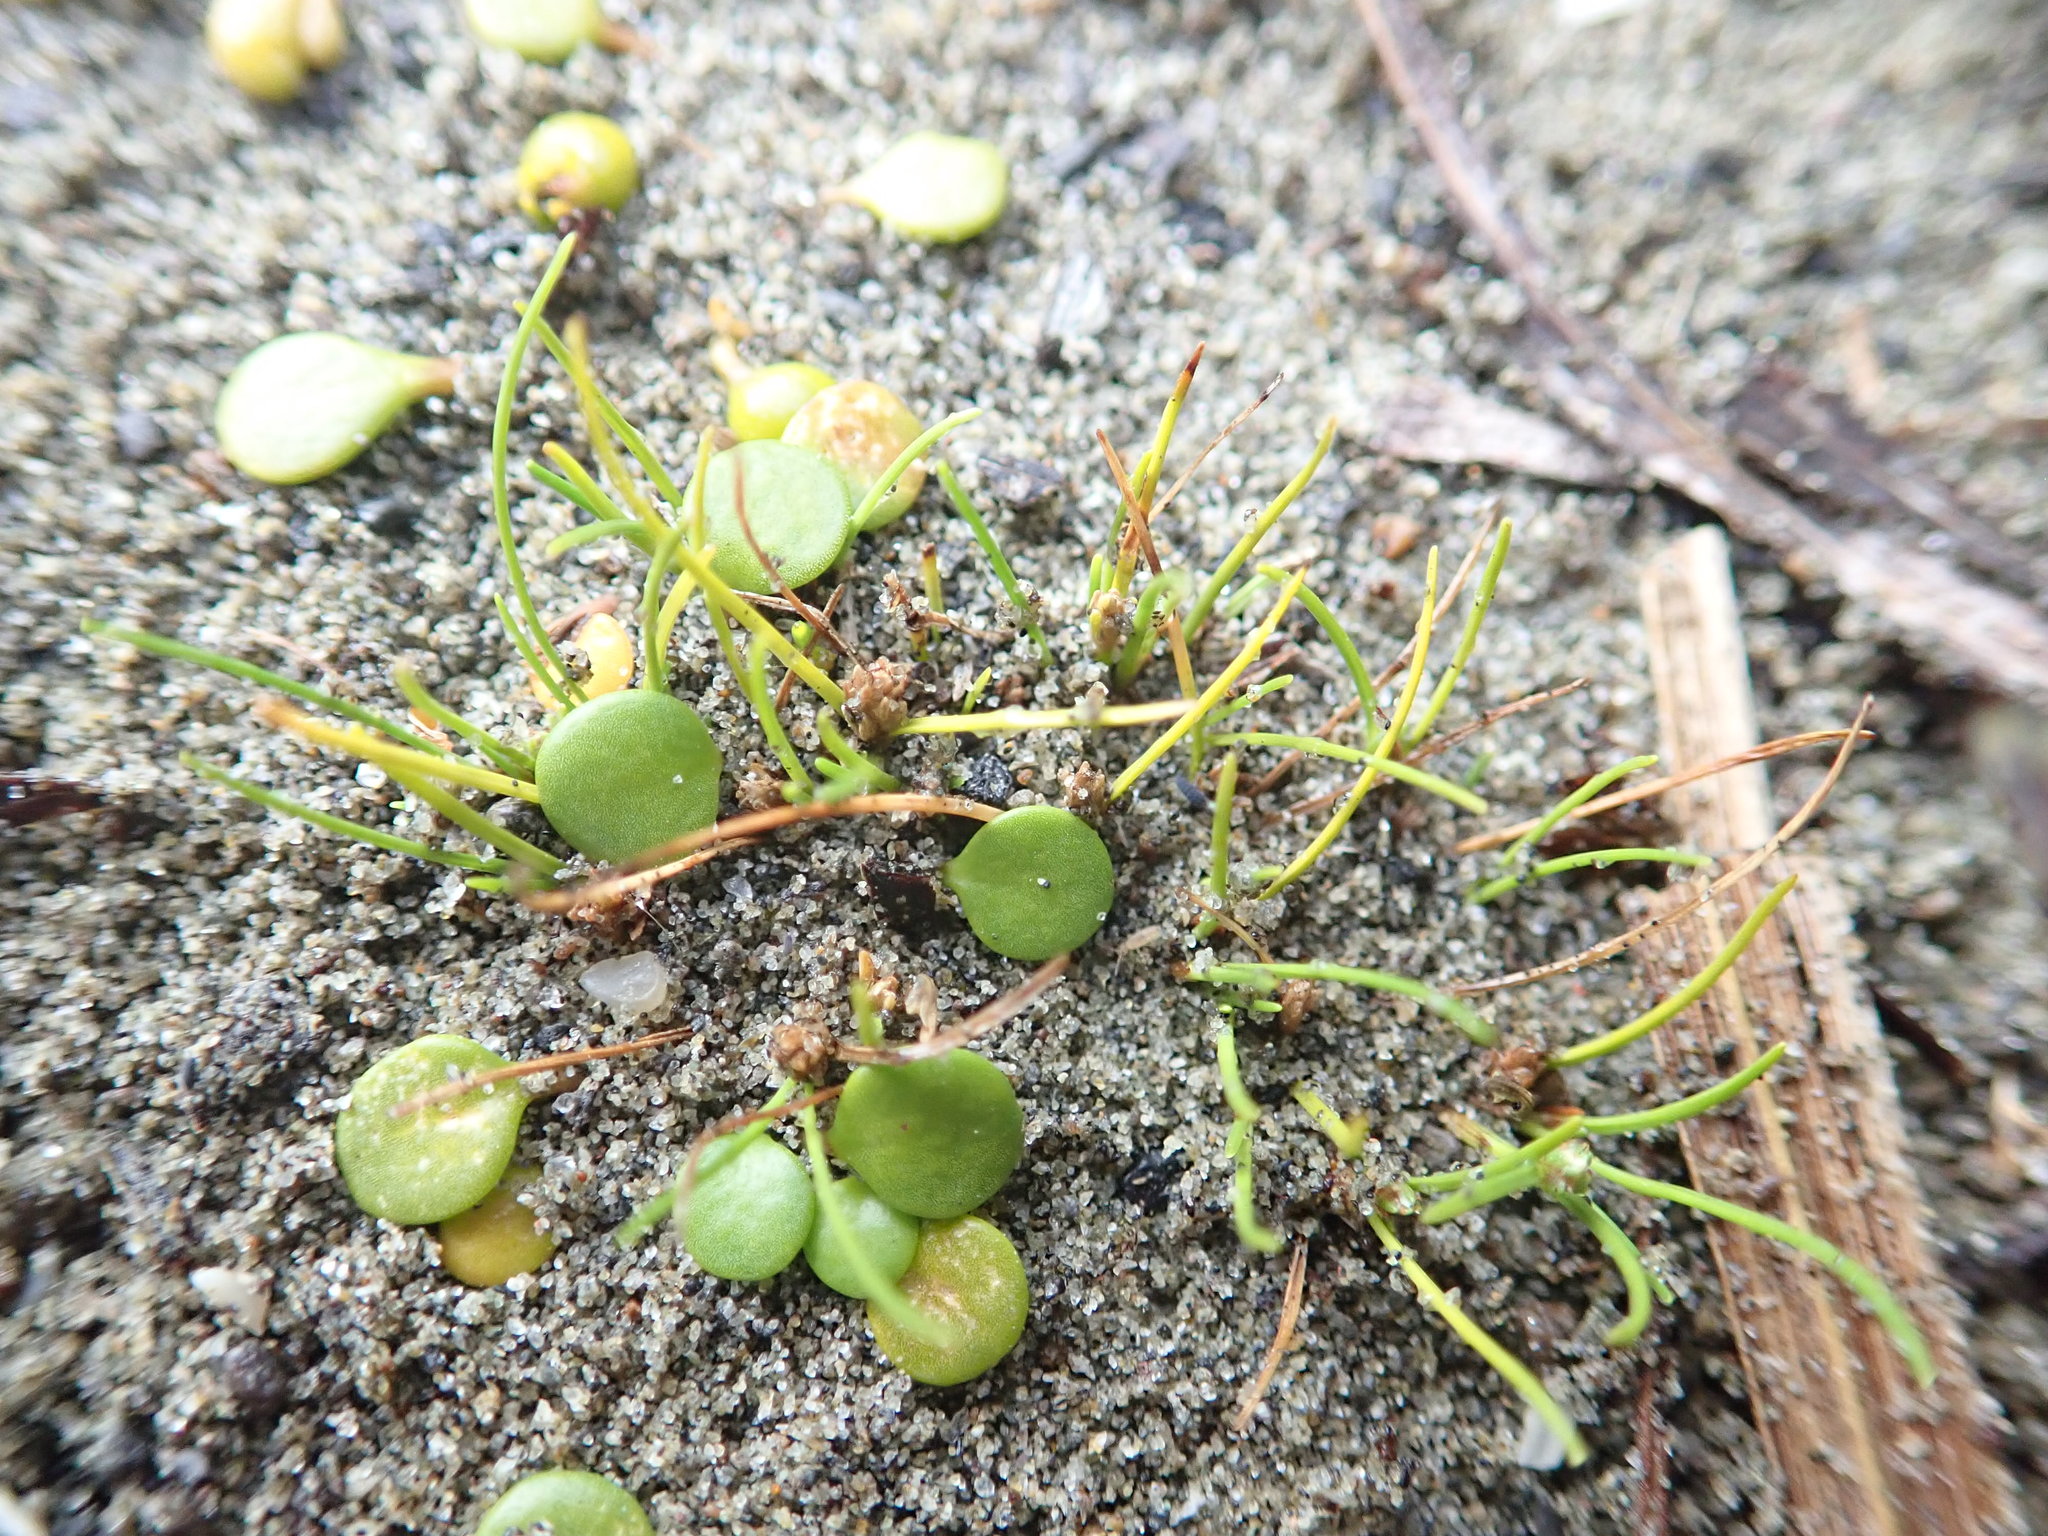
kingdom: Plantae
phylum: Tracheophyta
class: Magnoliopsida
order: Asterales
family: Goodeniaceae
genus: Goodenia
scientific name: Goodenia heenanii
